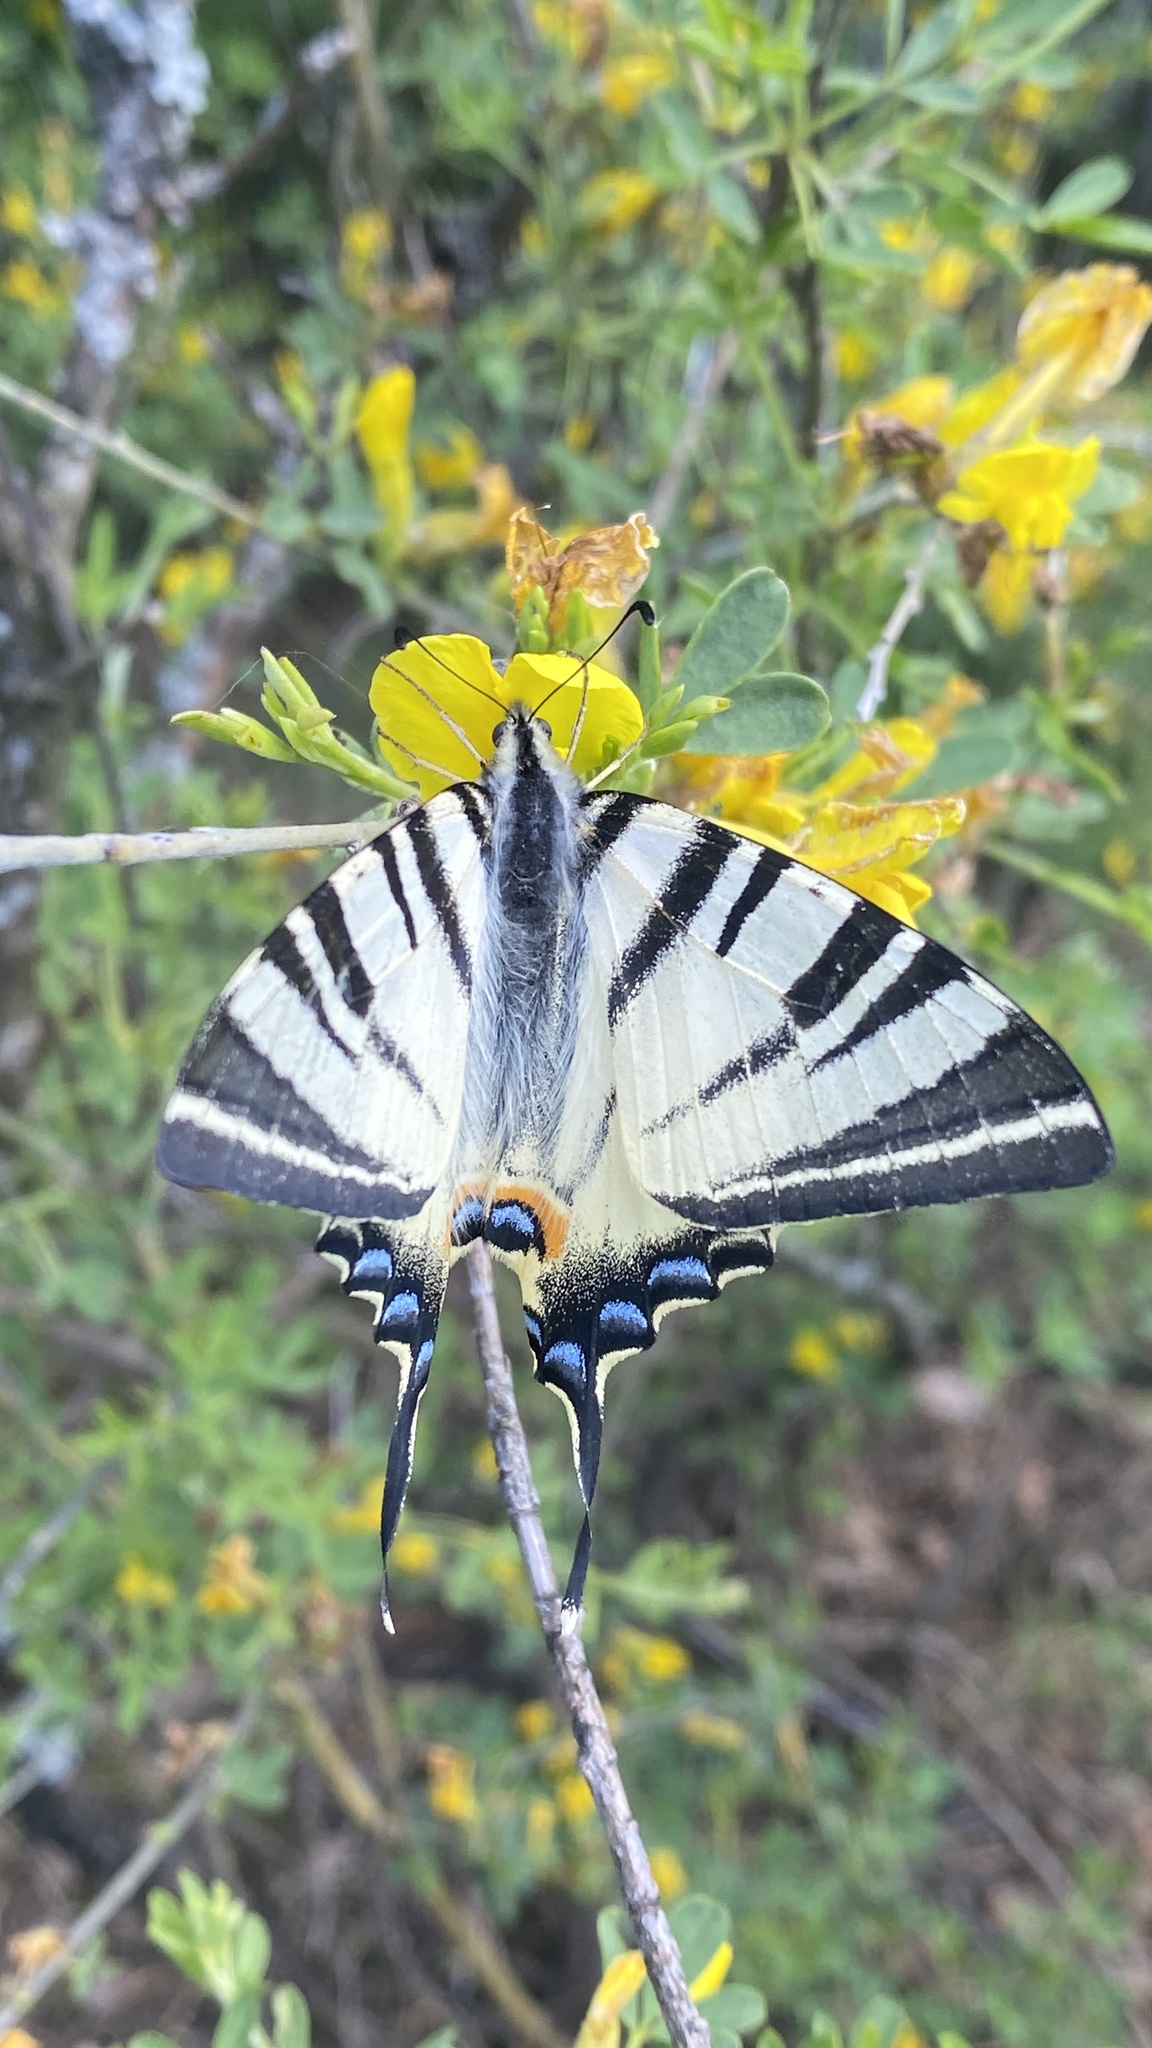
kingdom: Animalia
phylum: Arthropoda
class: Insecta
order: Lepidoptera
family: Papilionidae
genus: Iphiclides
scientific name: Iphiclides podalirius
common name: Scarce swallowtail
